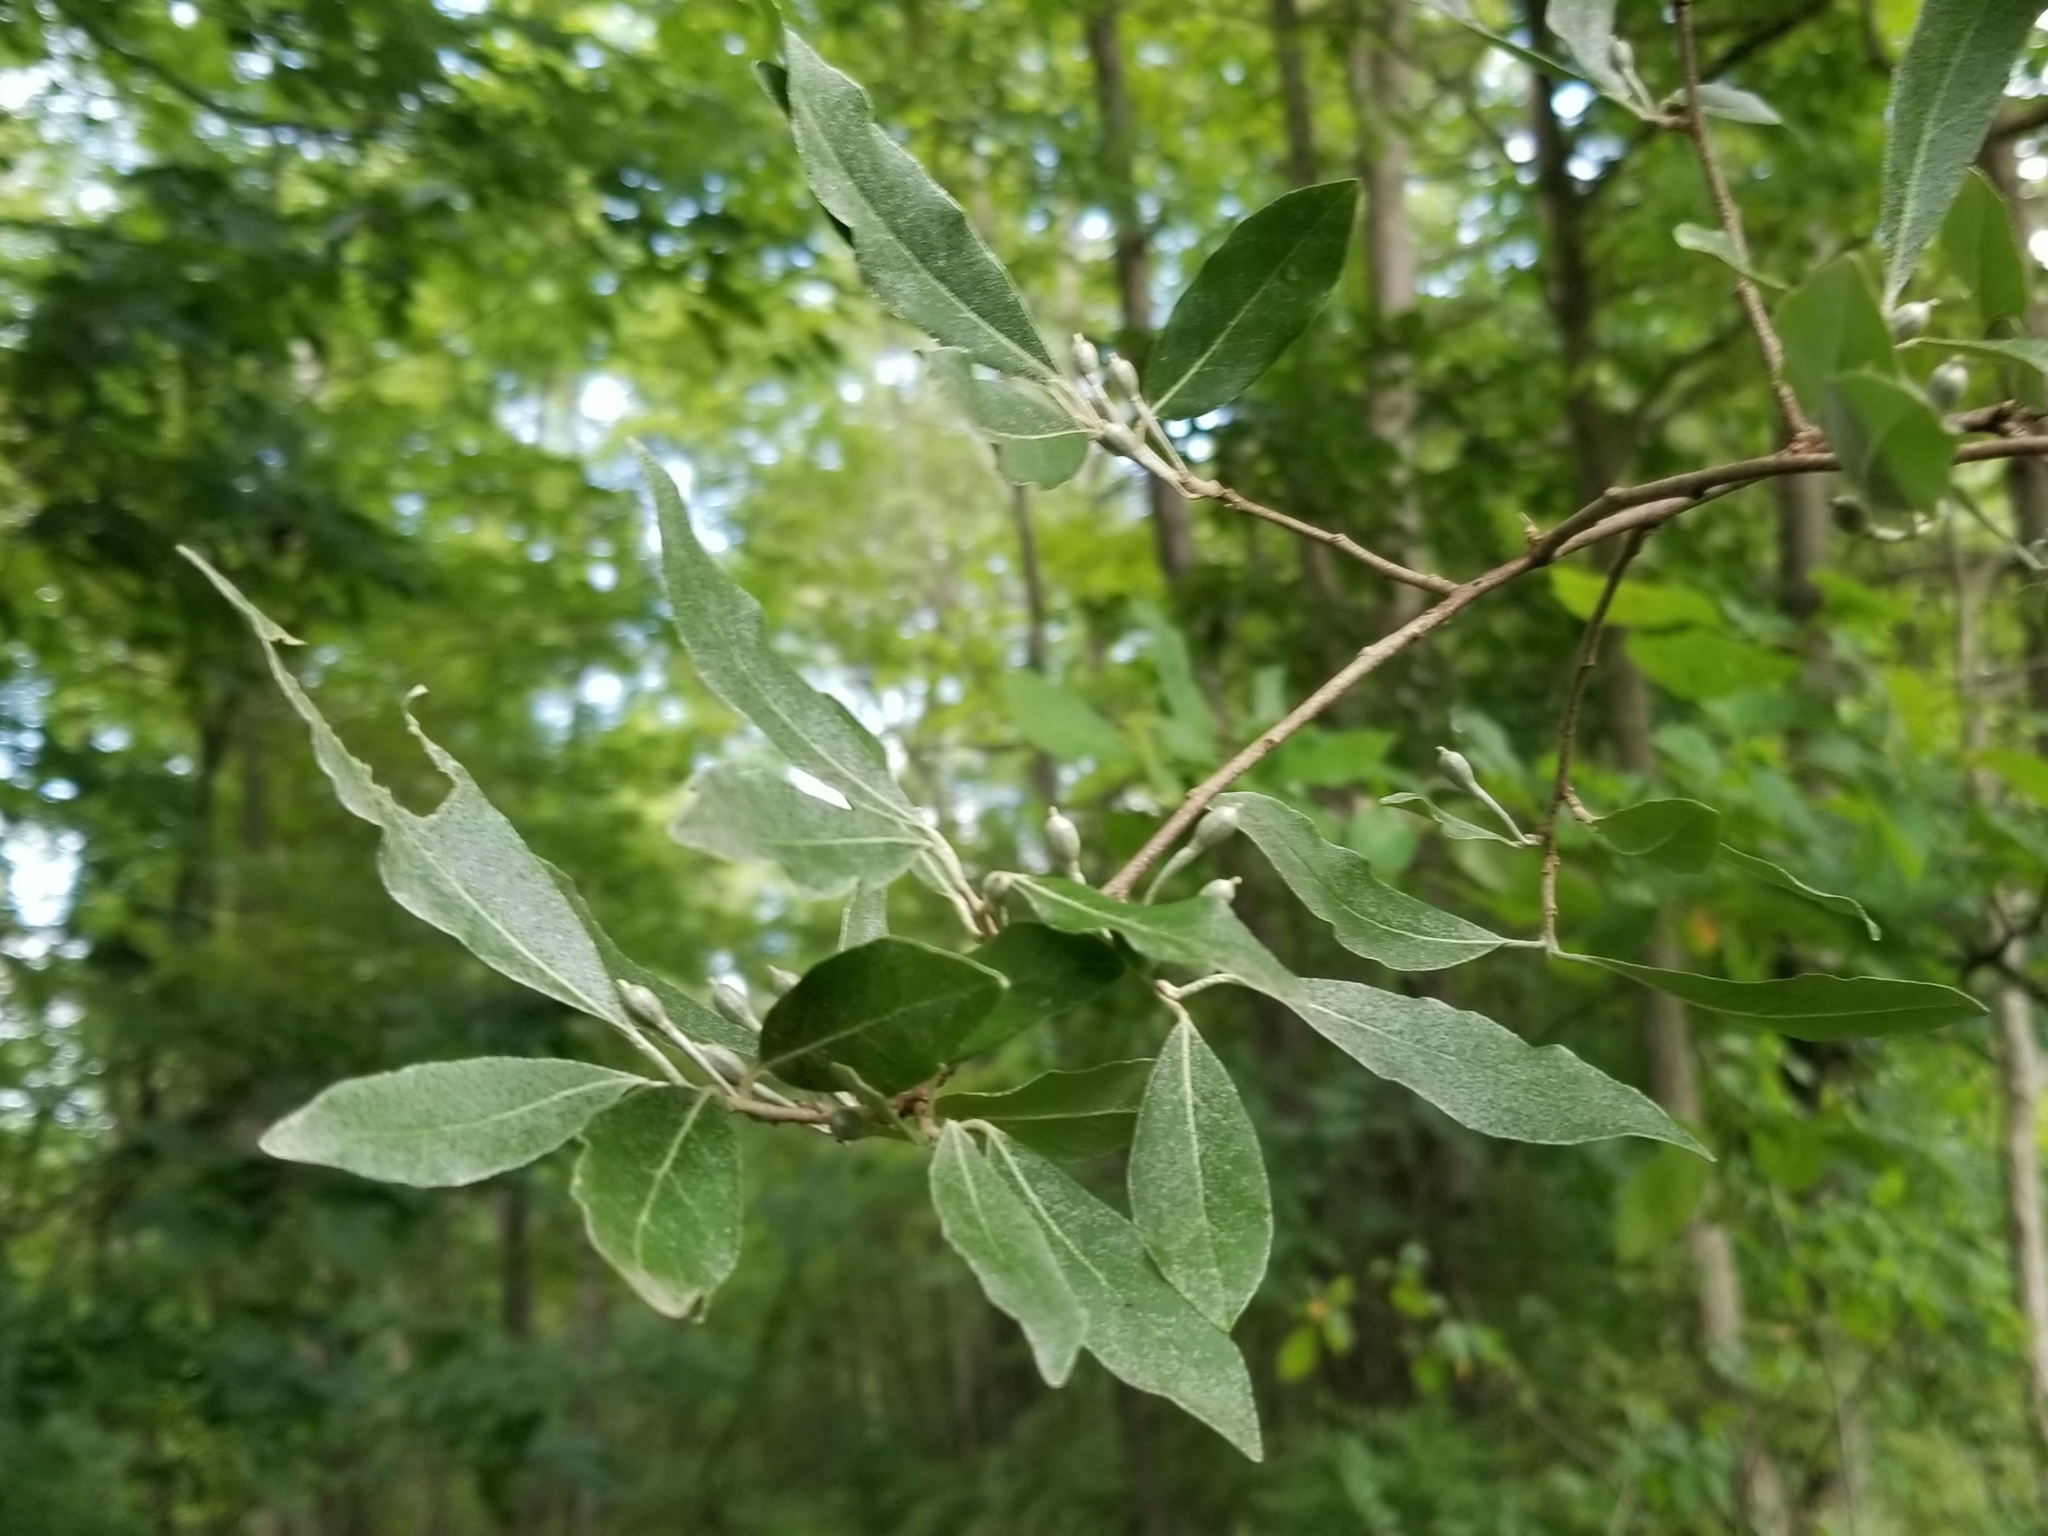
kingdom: Plantae
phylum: Tracheophyta
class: Magnoliopsida
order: Rosales
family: Elaeagnaceae
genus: Elaeagnus
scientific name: Elaeagnus umbellata
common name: Autumn olive
